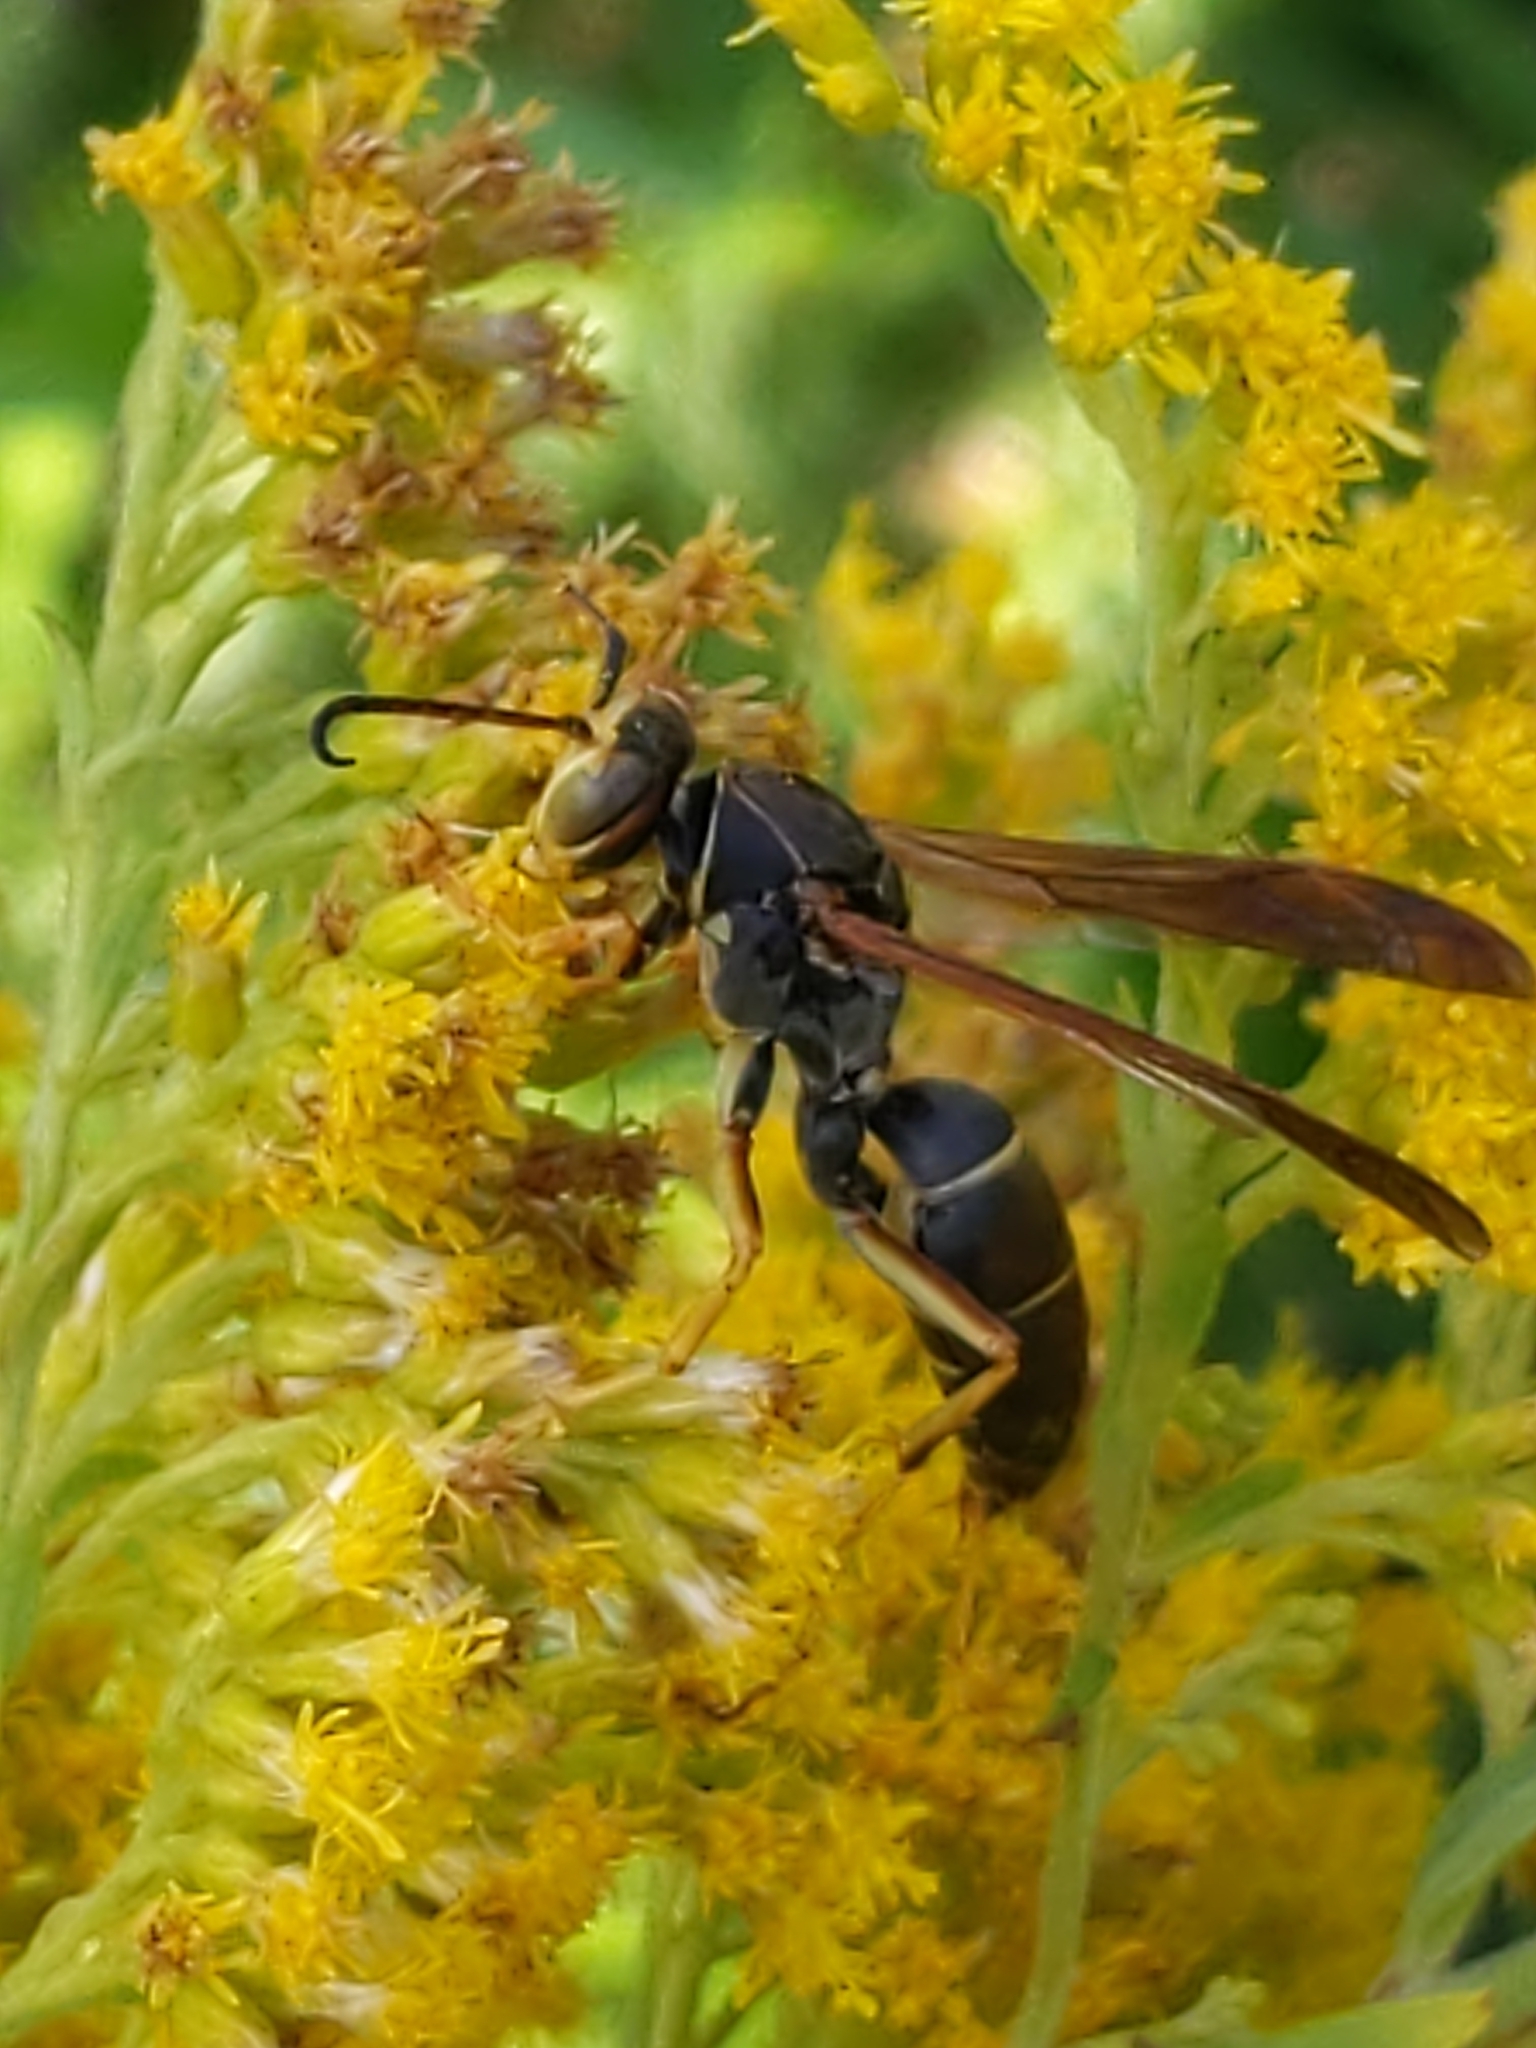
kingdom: Animalia
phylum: Arthropoda
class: Insecta
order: Hymenoptera
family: Eumenidae
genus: Polistes
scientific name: Polistes fuscatus
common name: Dark paper wasp
